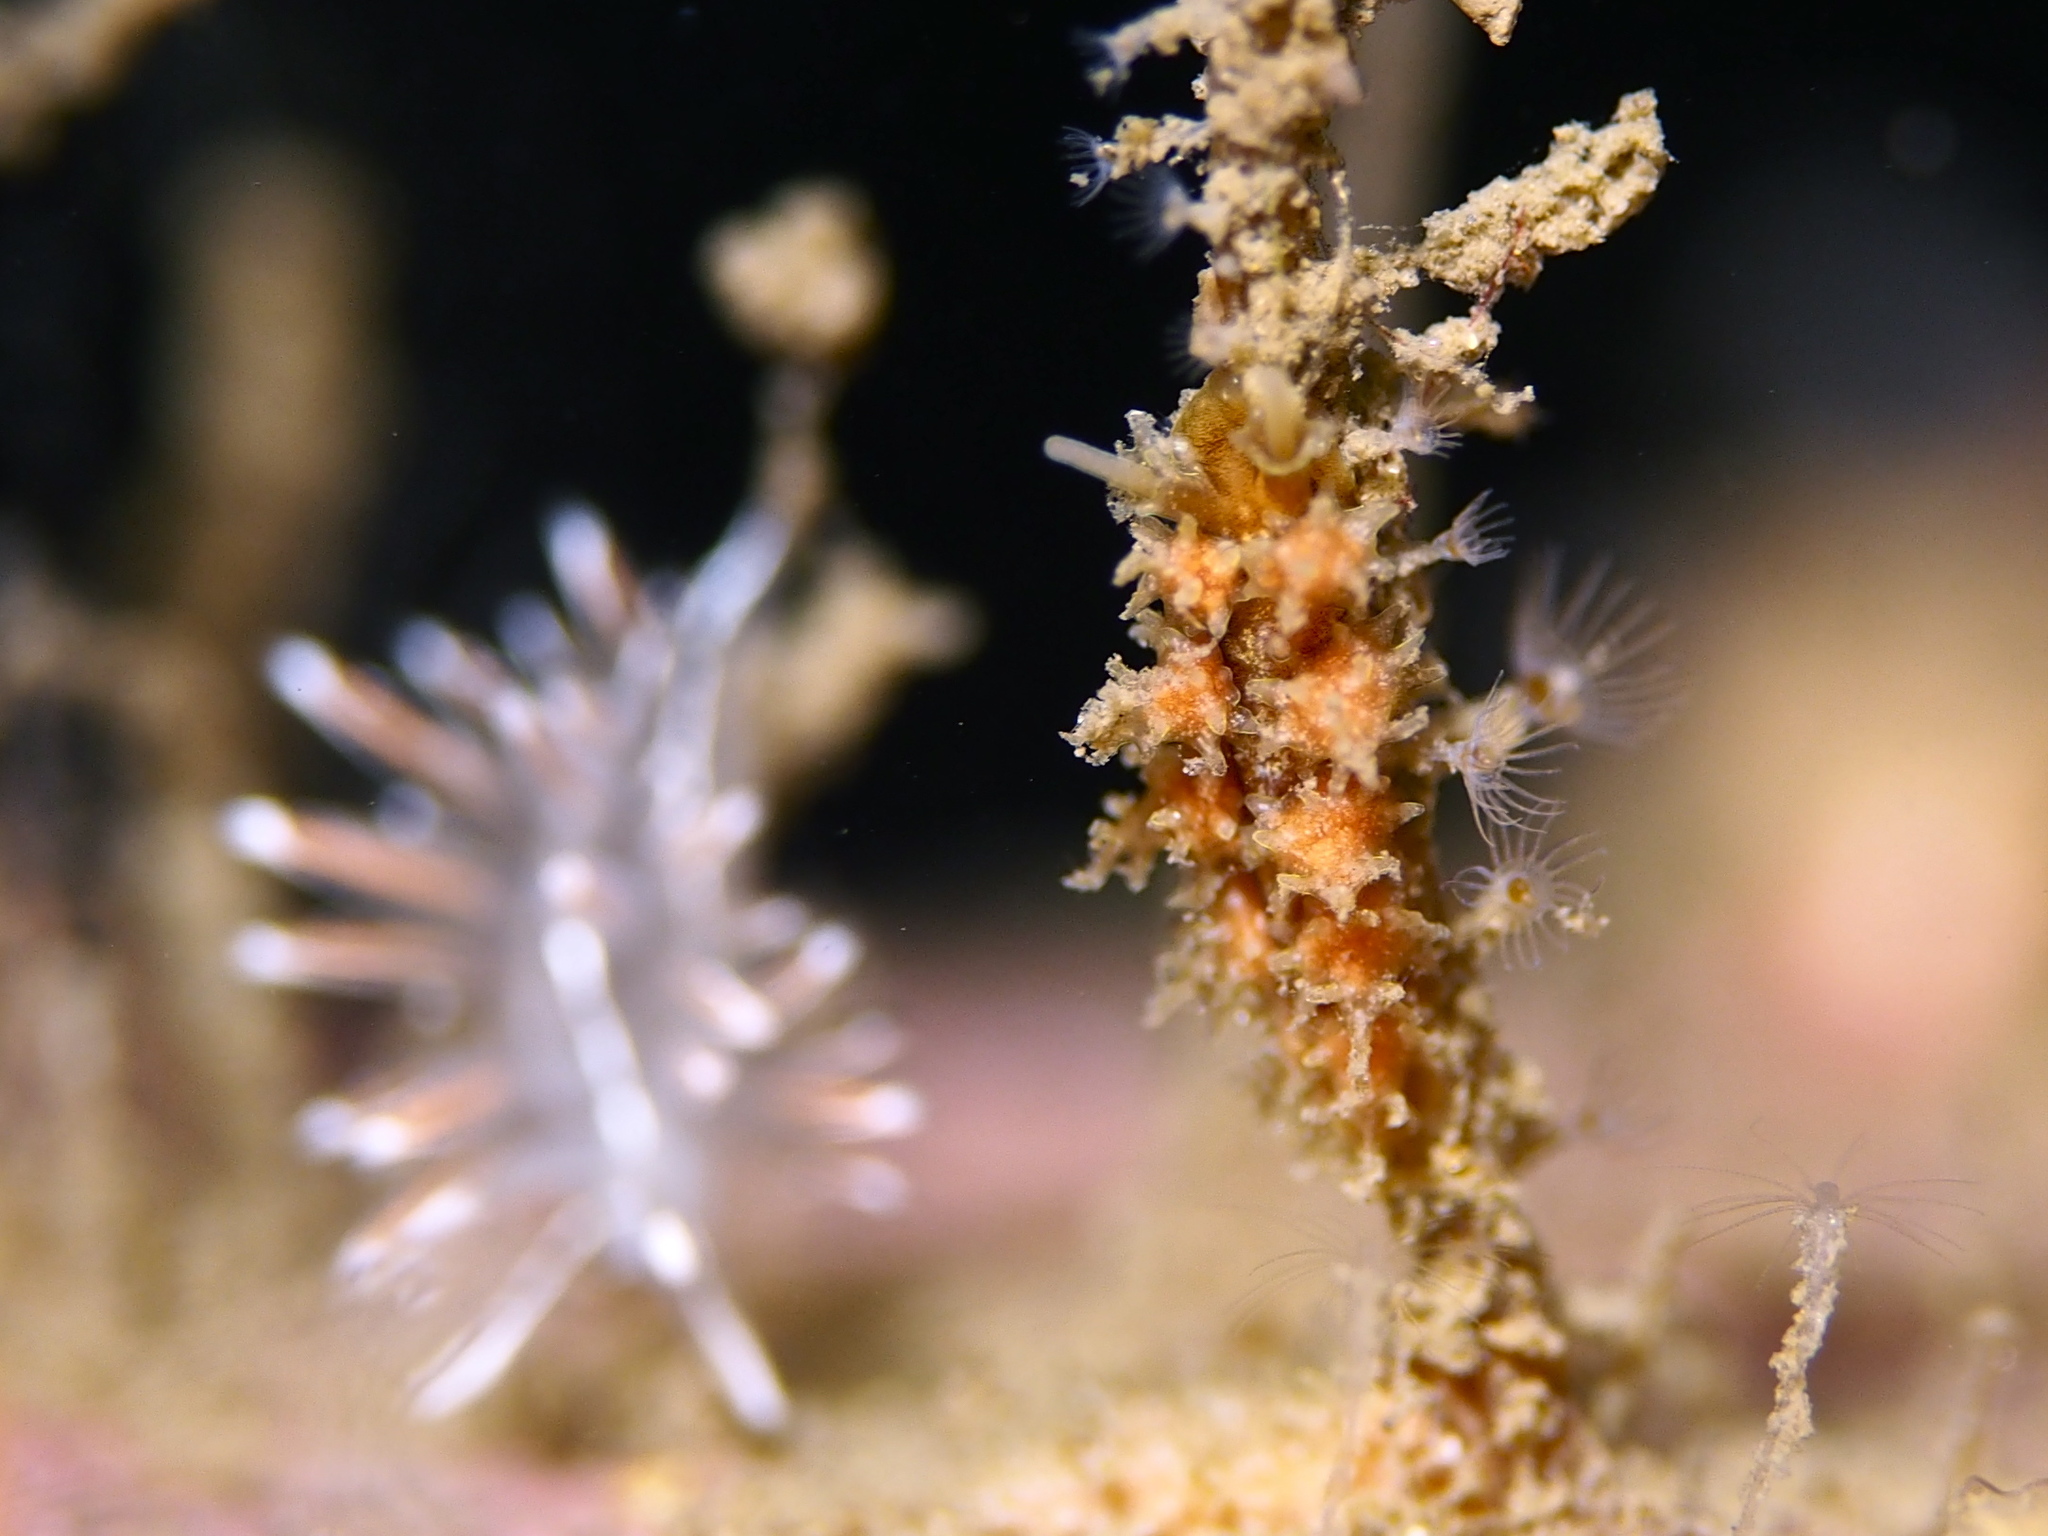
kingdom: Animalia
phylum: Mollusca
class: Gastropoda
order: Nudibranchia
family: Dotidae
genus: Doto
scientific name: Doto hystrix
